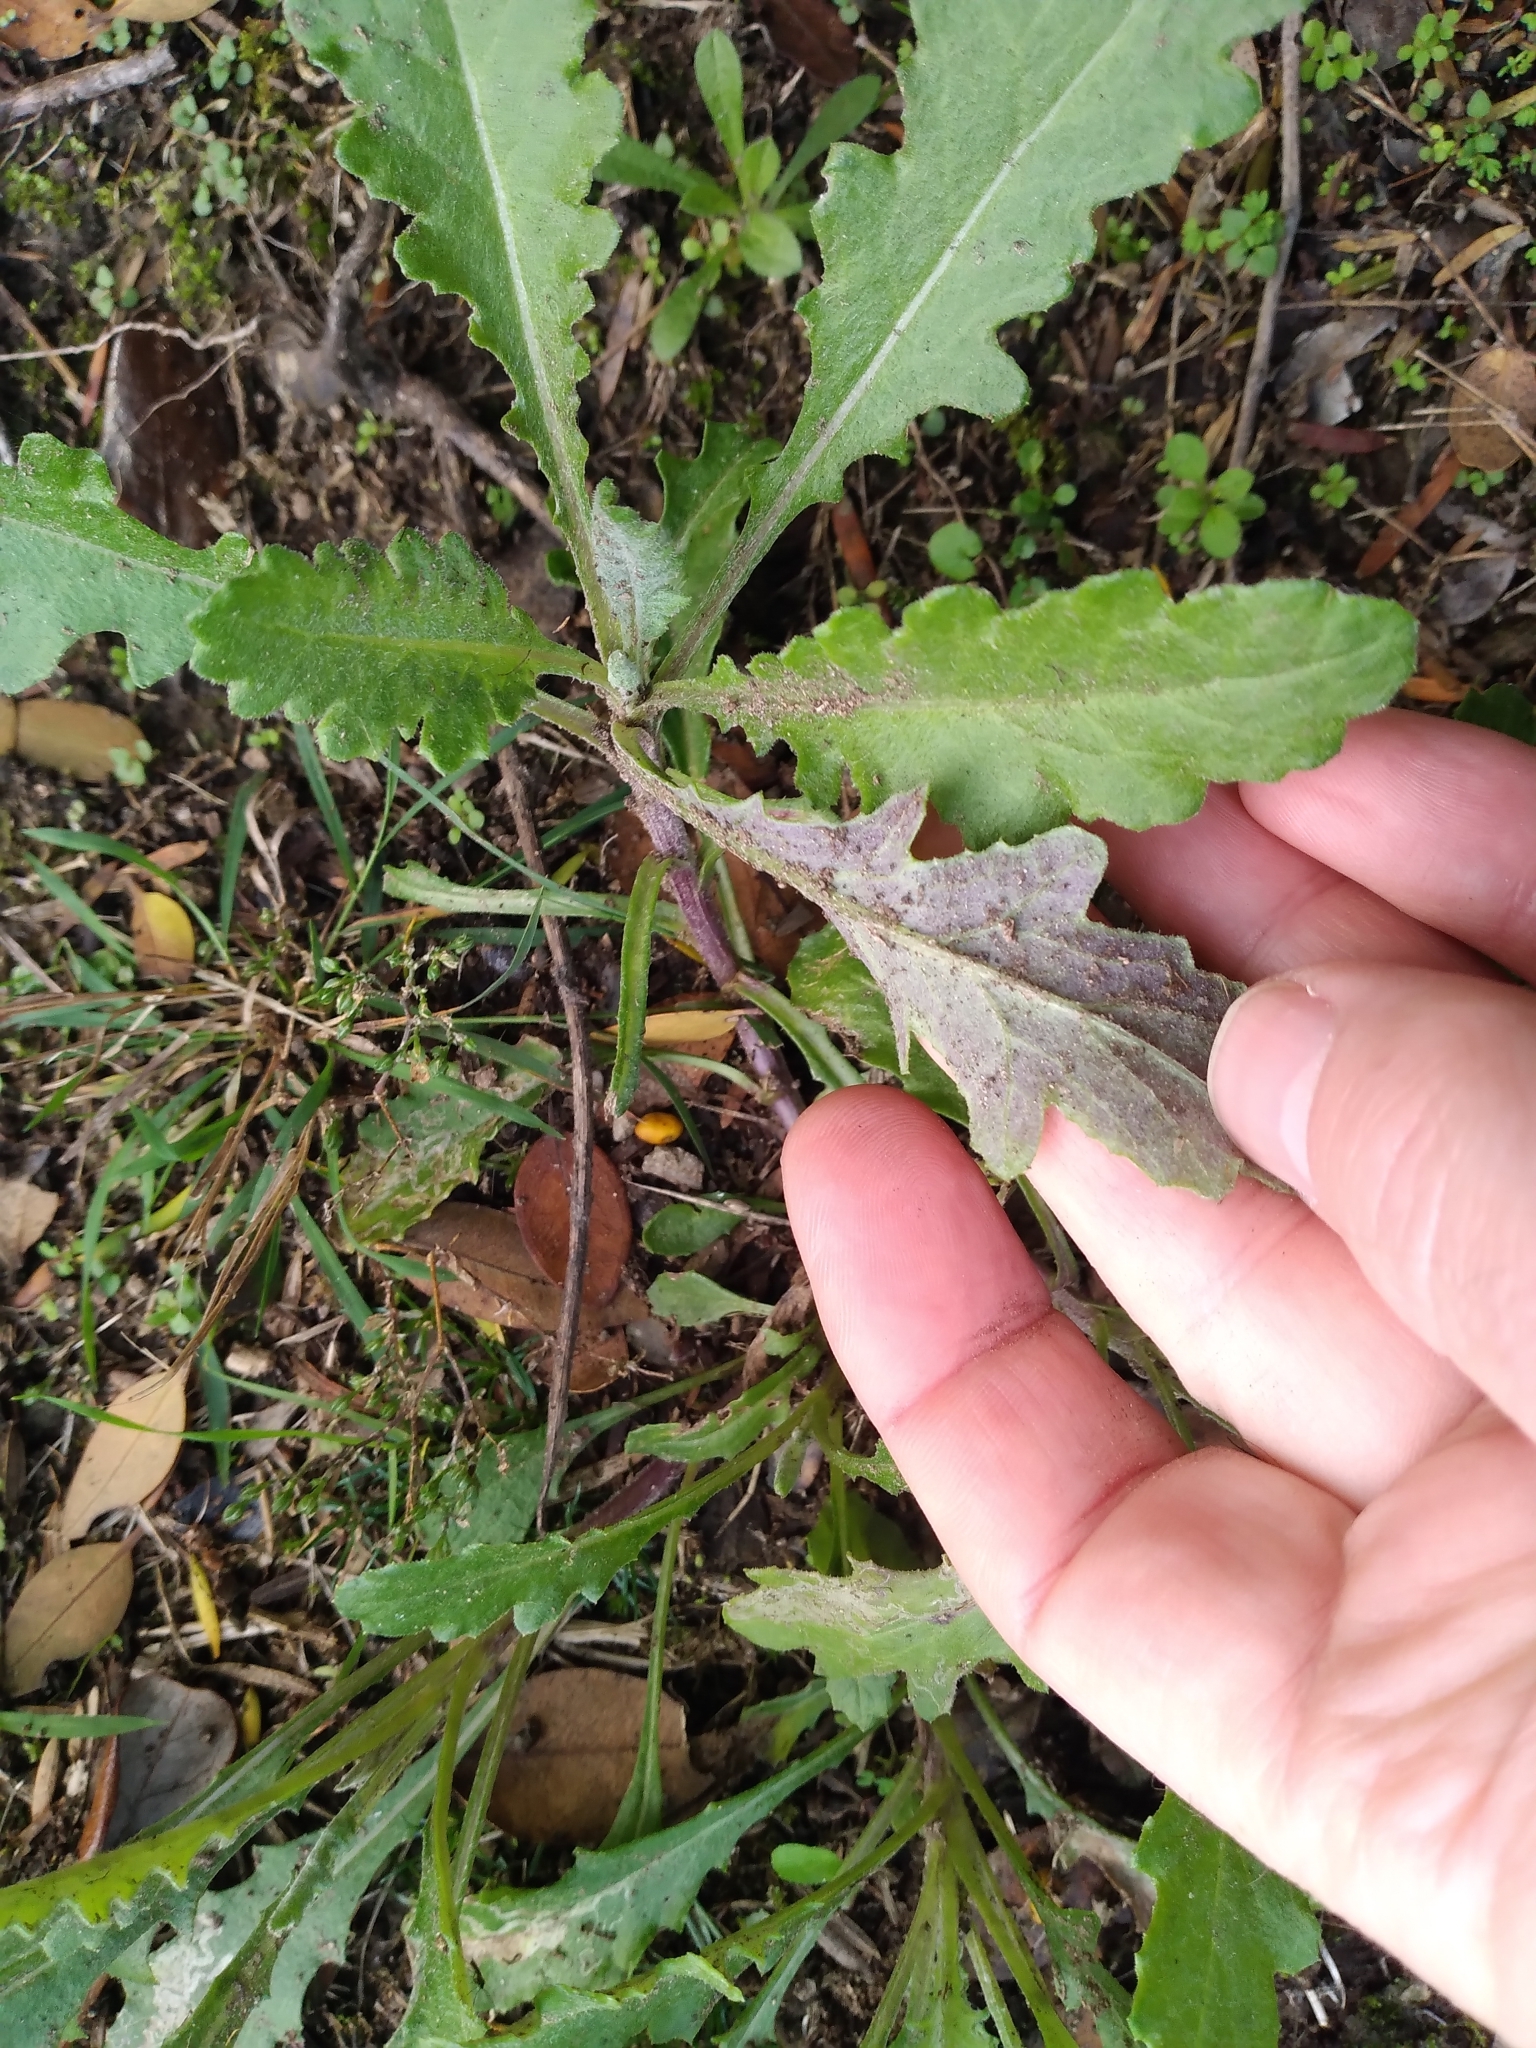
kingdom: Plantae
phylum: Tracheophyta
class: Magnoliopsida
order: Asterales
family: Asteraceae
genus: Senecio
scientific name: Senecio glomeratus
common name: Cutleaf burnweed
